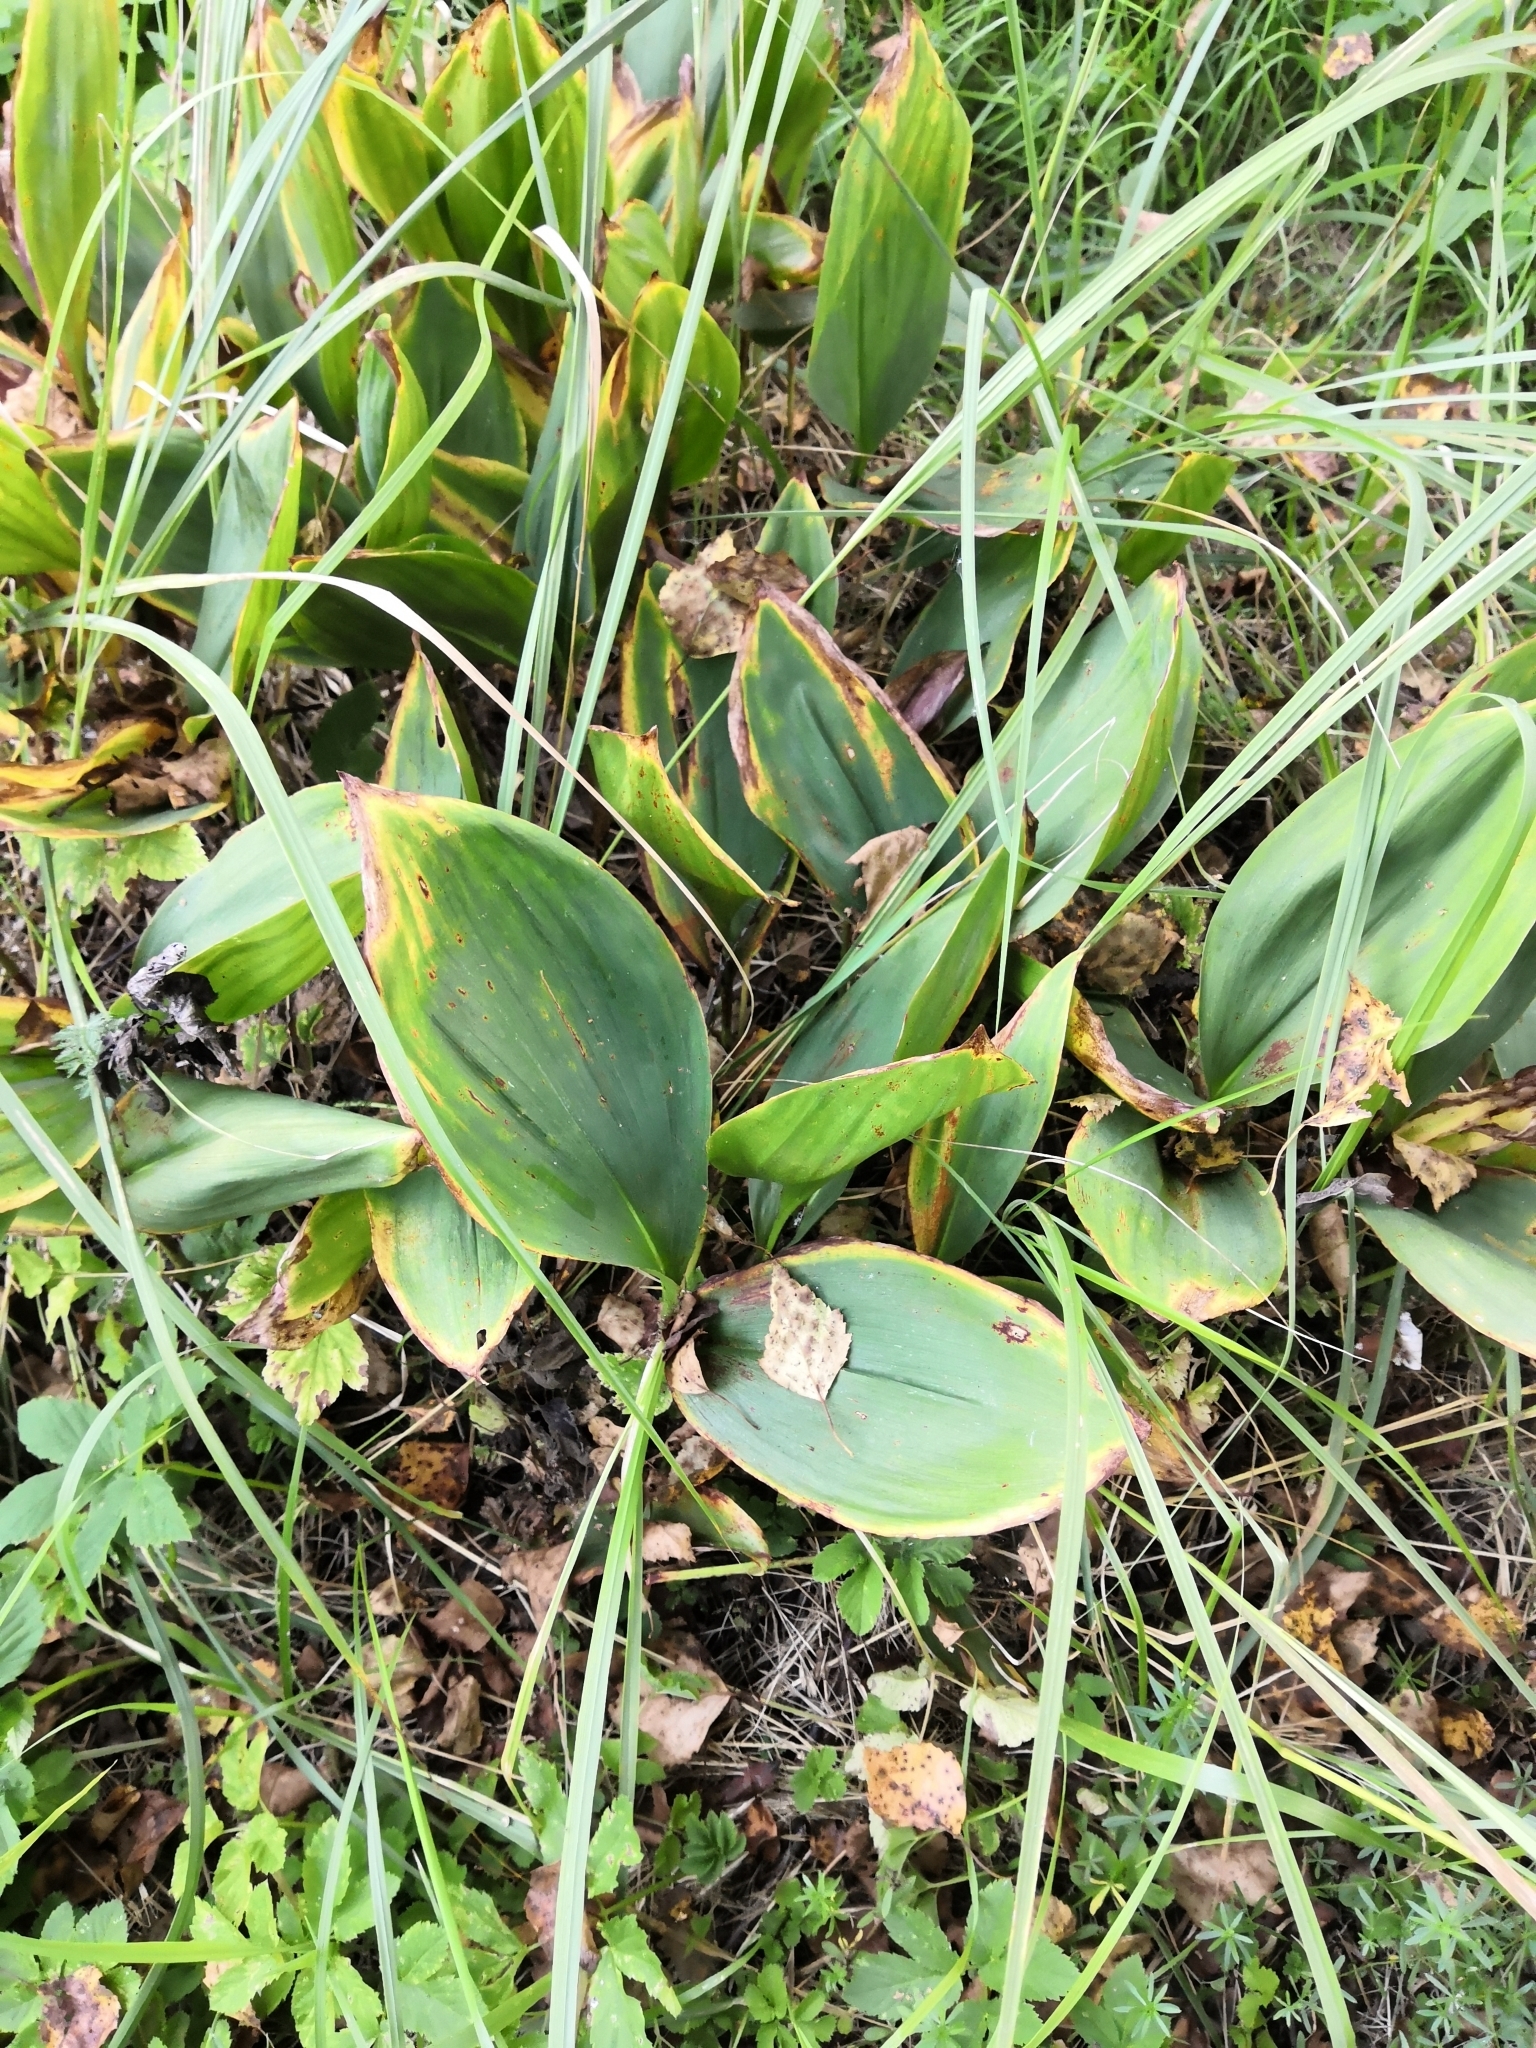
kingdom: Plantae
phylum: Tracheophyta
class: Liliopsida
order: Asparagales
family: Asparagaceae
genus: Convallaria
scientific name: Convallaria majalis
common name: Lily-of-the-valley
